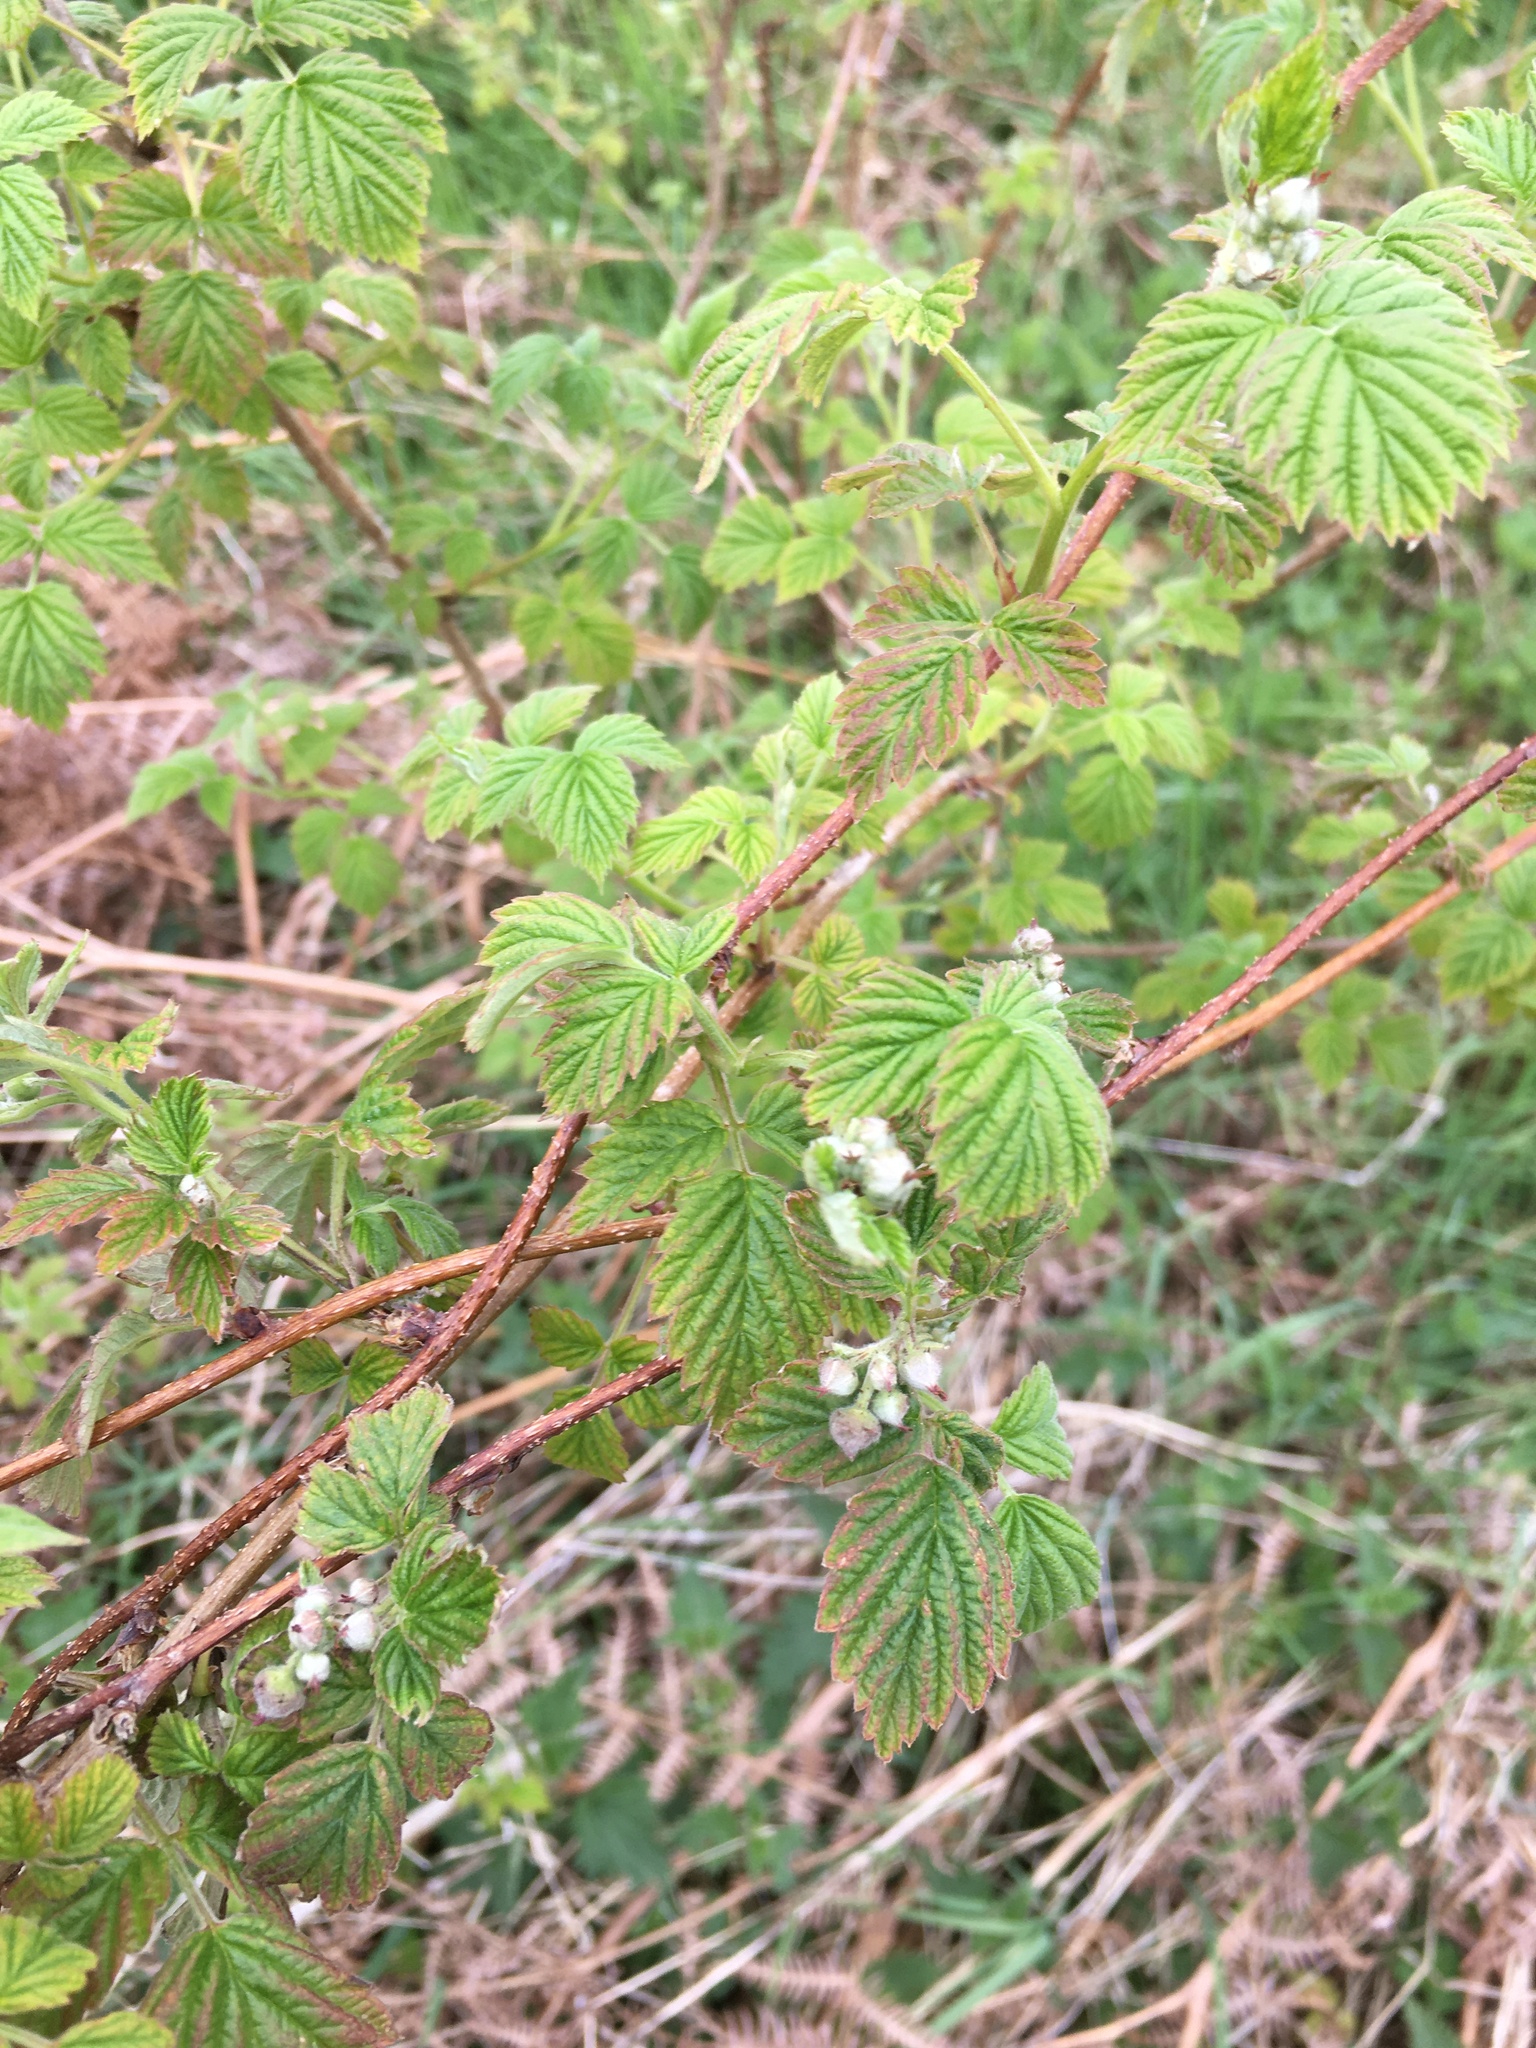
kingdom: Plantae
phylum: Tracheophyta
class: Magnoliopsida
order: Rosales
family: Rosaceae
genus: Rubus
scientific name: Rubus idaeus
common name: Raspberry
